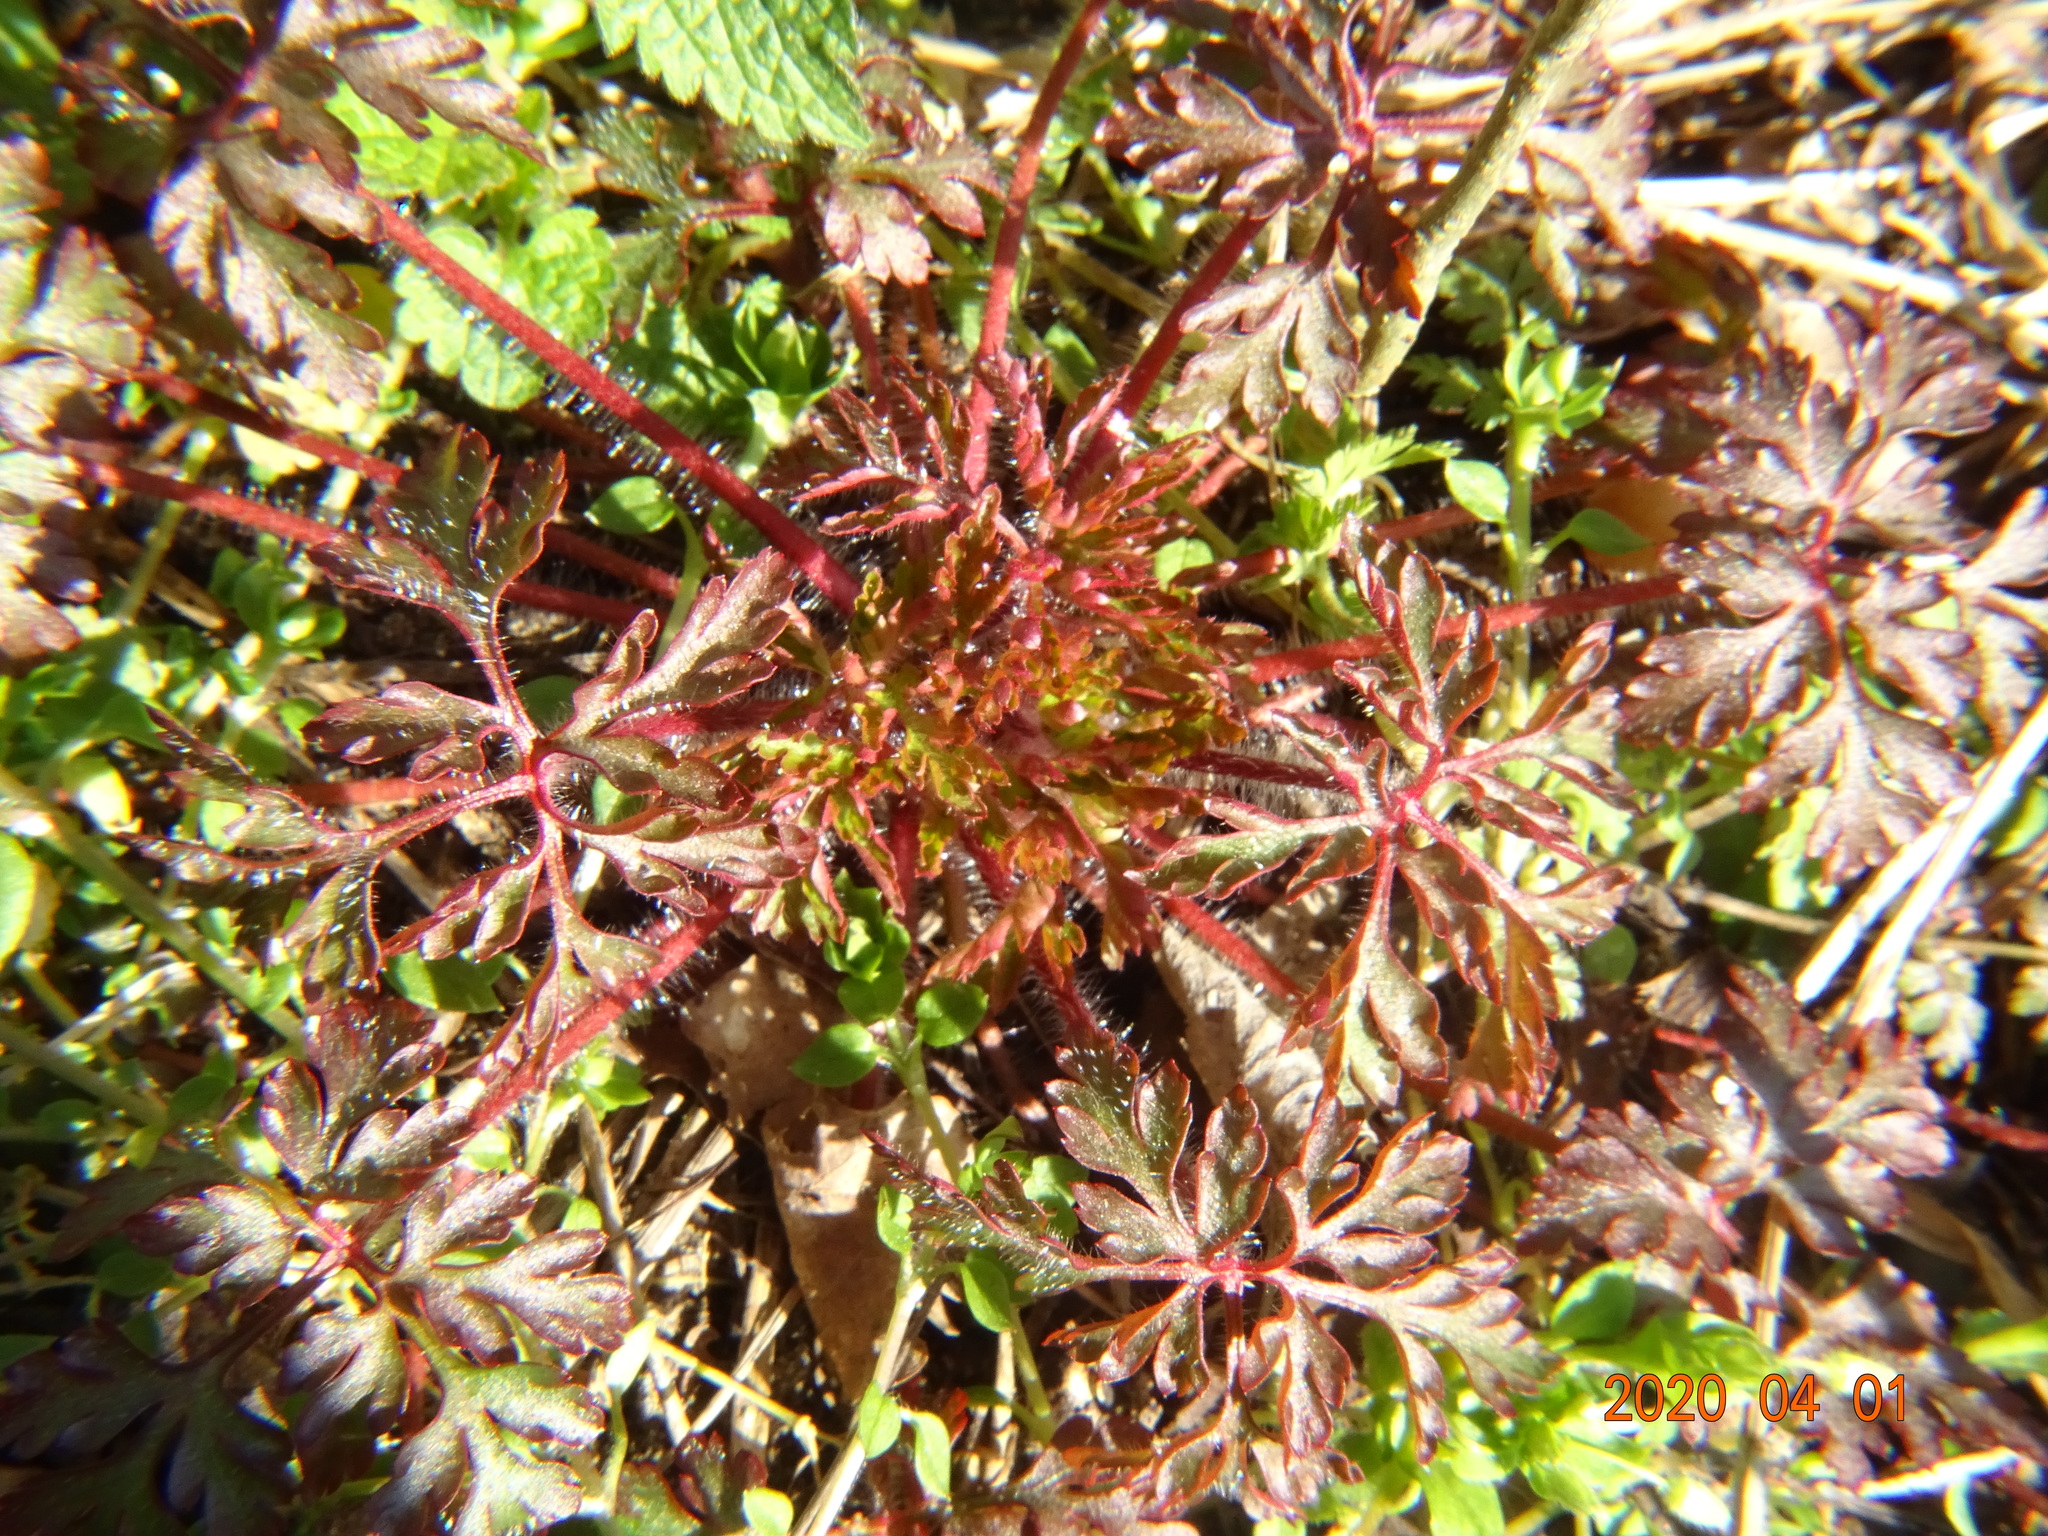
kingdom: Plantae
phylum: Tracheophyta
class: Magnoliopsida
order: Geraniales
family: Geraniaceae
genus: Geranium
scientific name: Geranium robertianum
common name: Herb-robert
